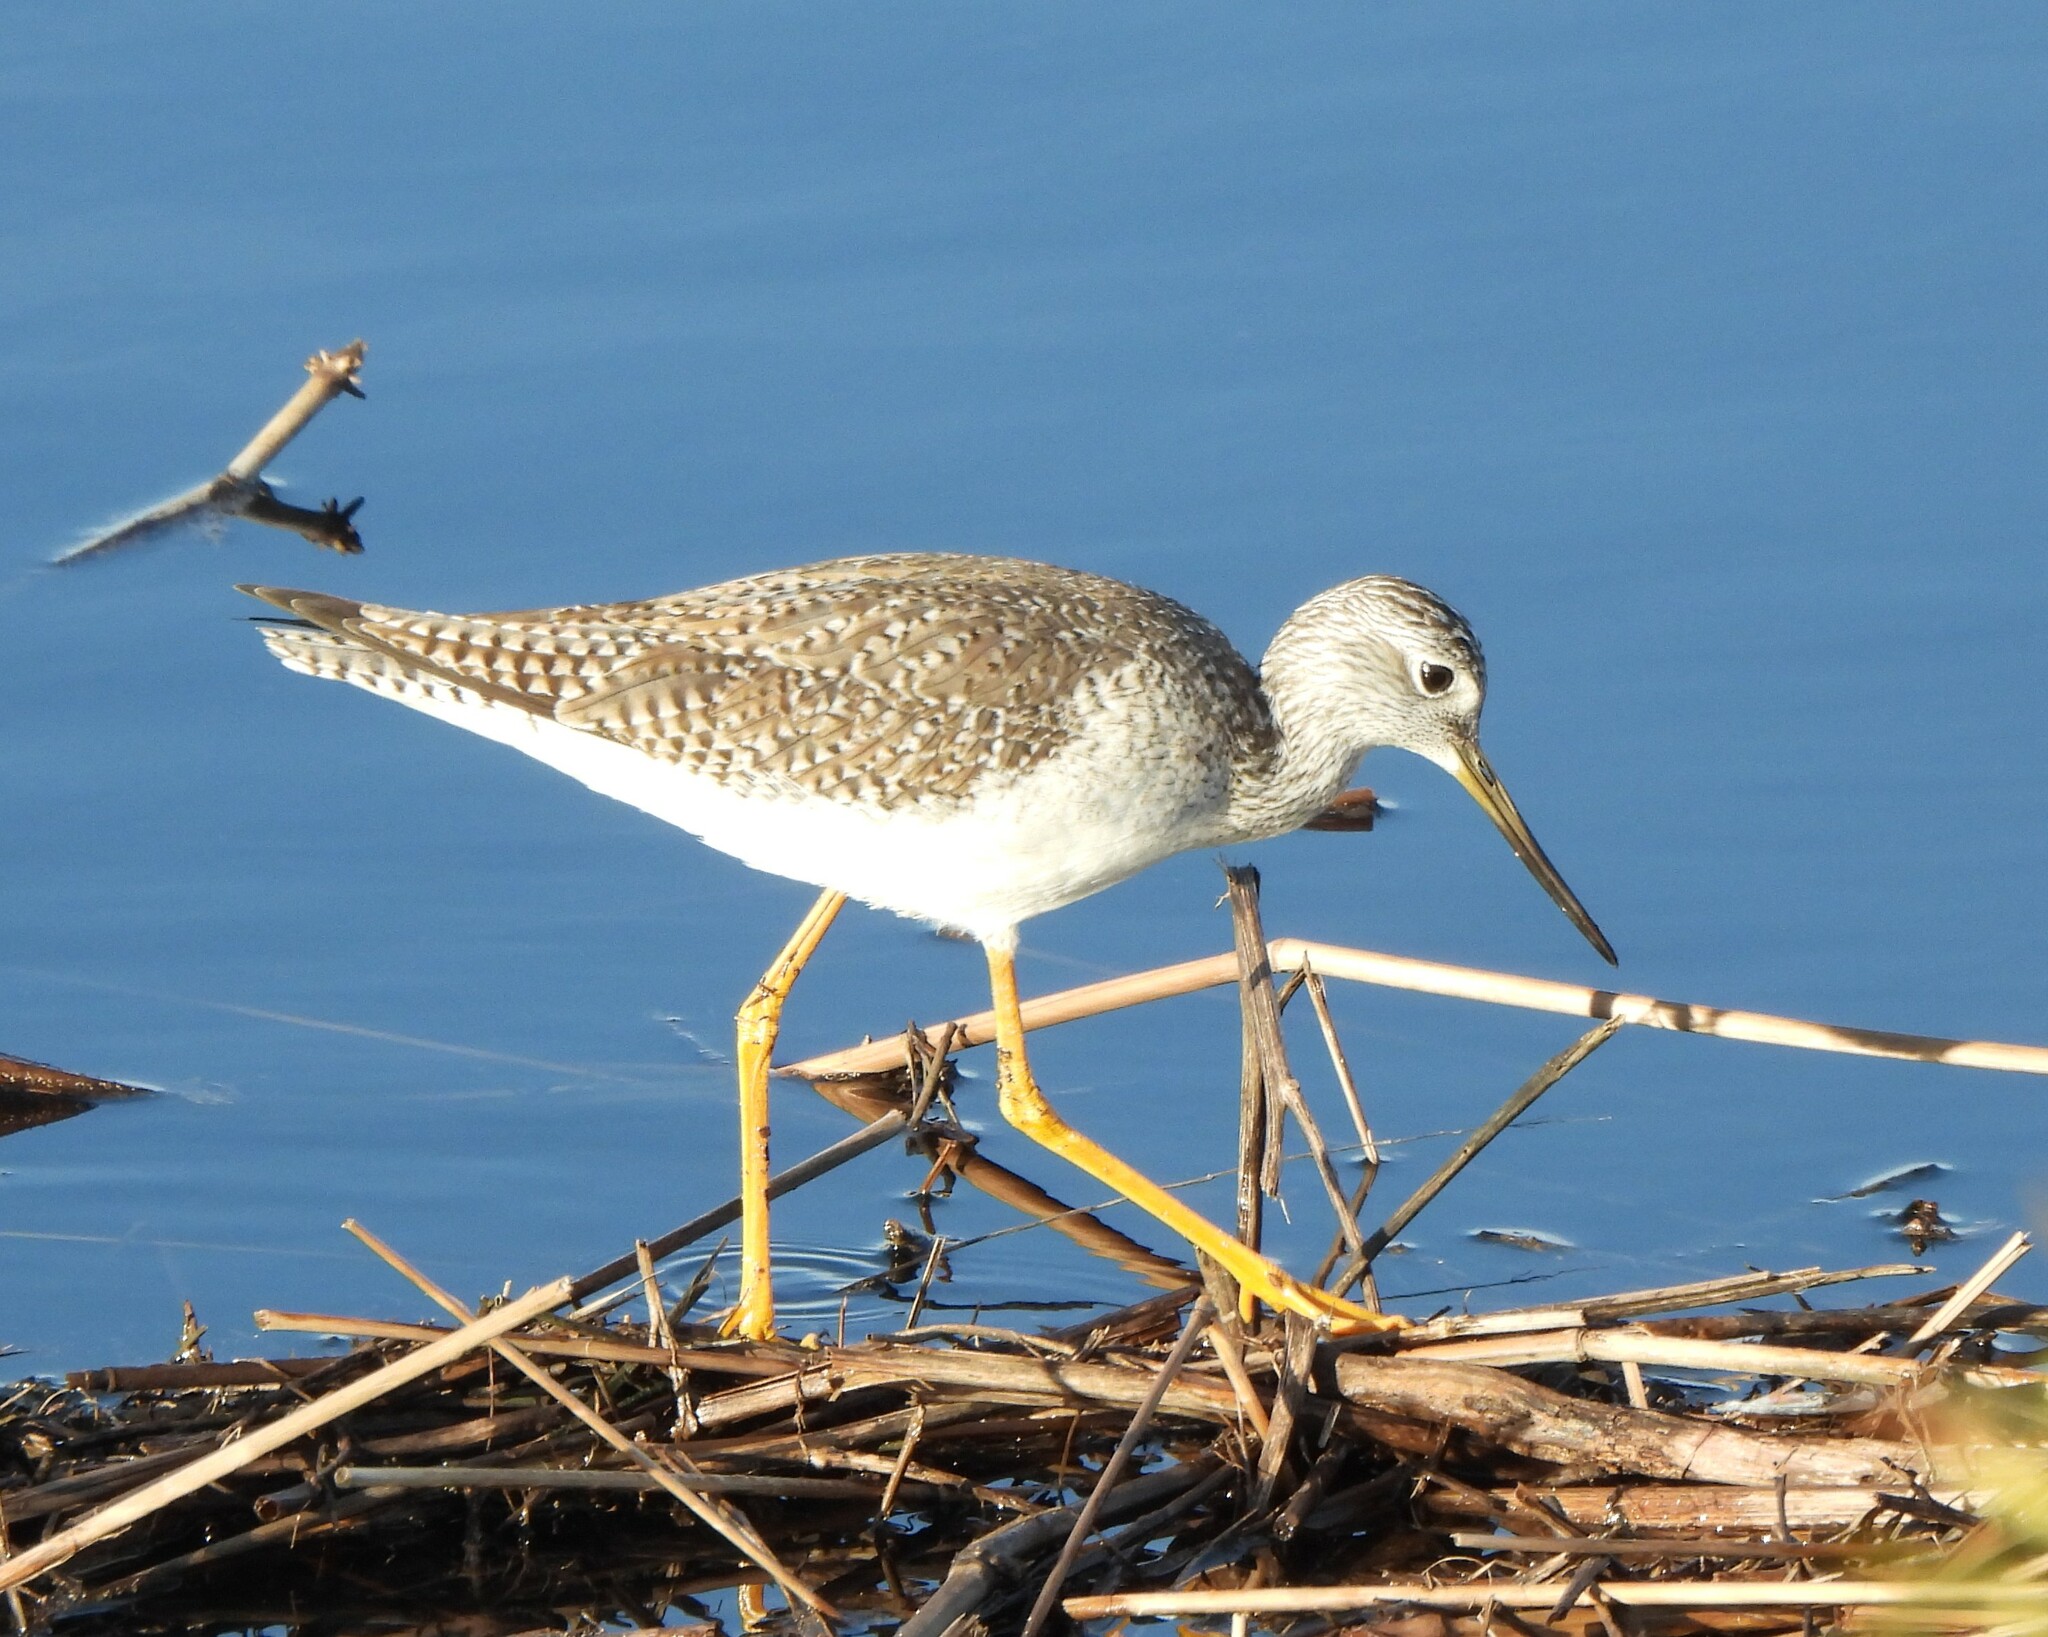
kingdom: Animalia
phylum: Chordata
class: Aves
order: Charadriiformes
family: Scolopacidae
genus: Tringa
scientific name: Tringa melanoleuca
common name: Greater yellowlegs
